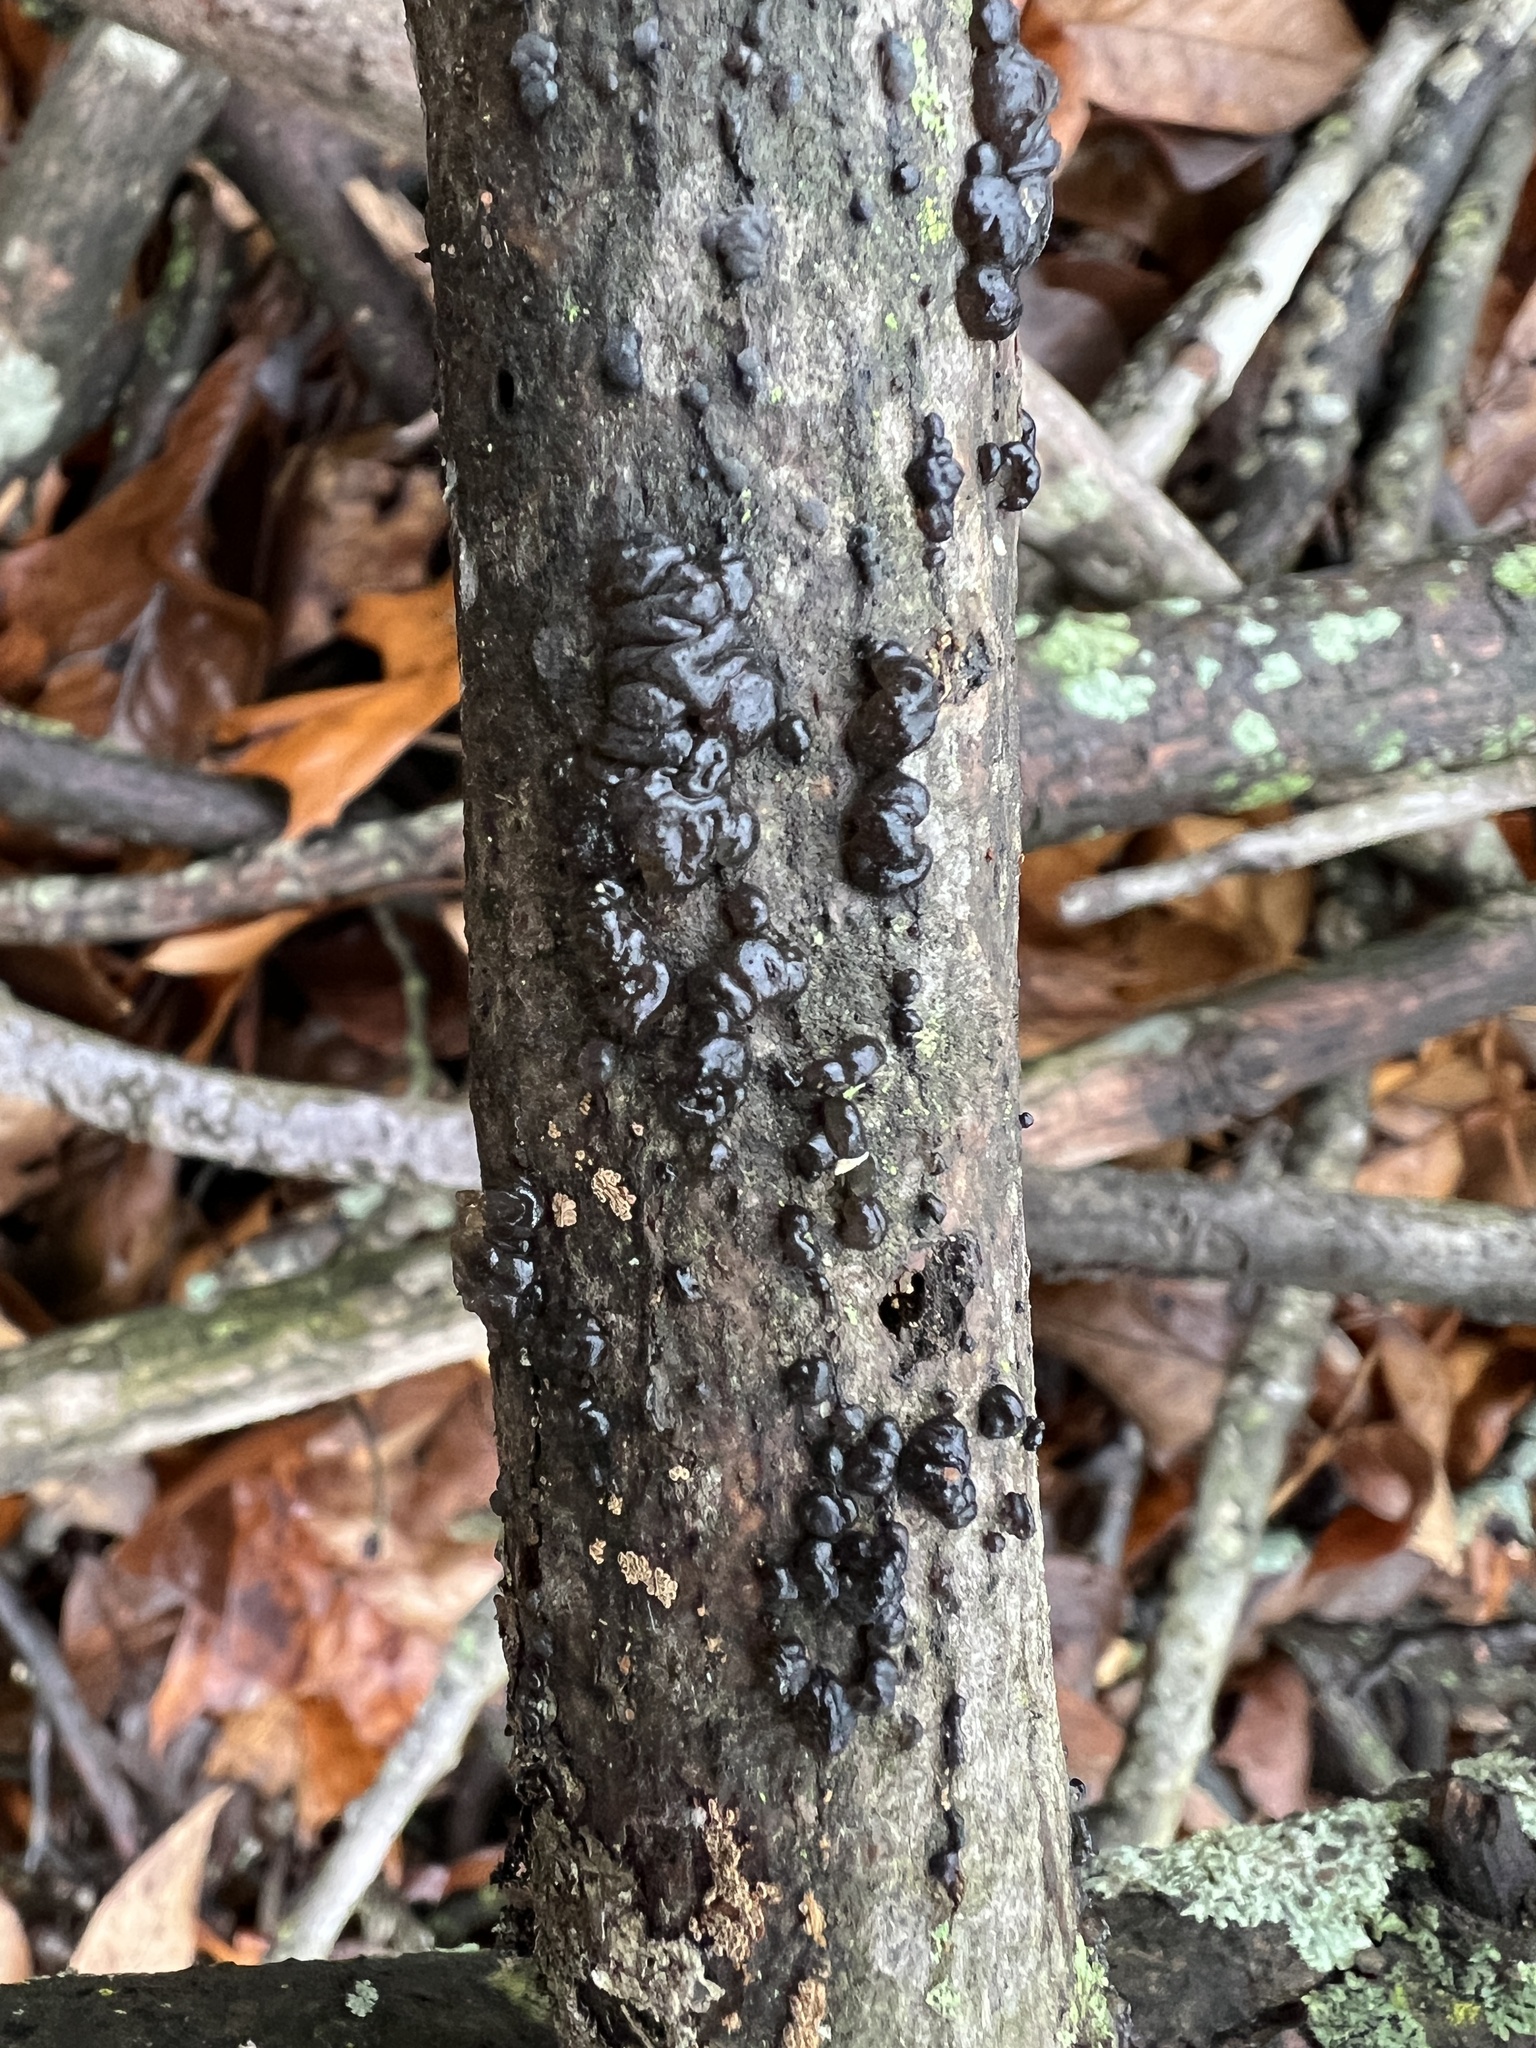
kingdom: Fungi
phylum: Basidiomycota
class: Agaricomycetes
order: Auriculariales
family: Auriculariaceae
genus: Exidia
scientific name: Exidia nigricans
